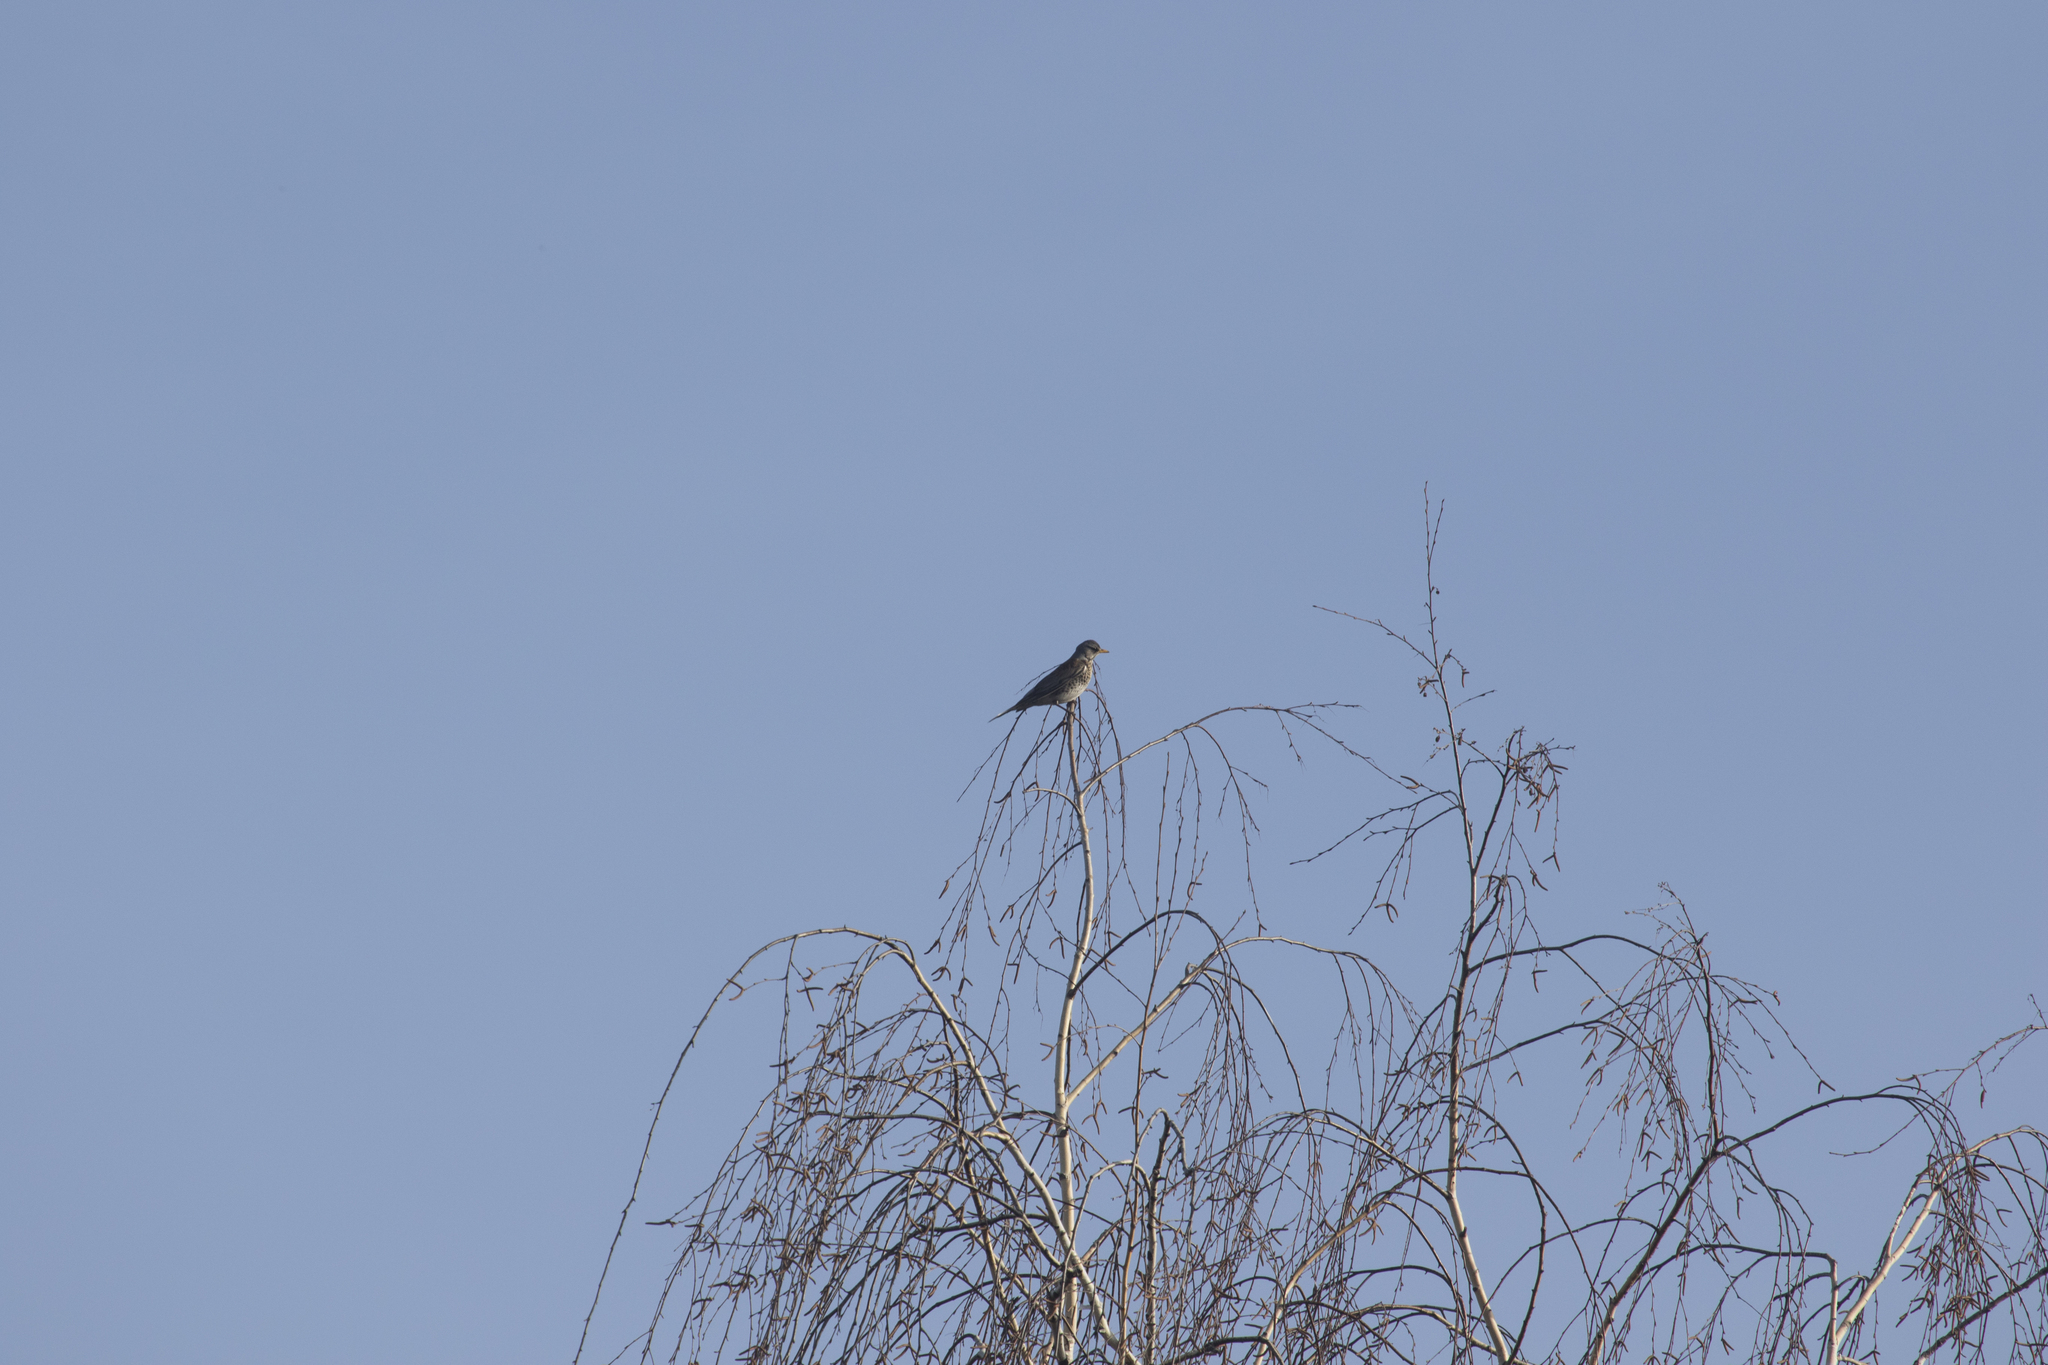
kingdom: Animalia
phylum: Chordata
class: Aves
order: Passeriformes
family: Turdidae
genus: Turdus
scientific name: Turdus pilaris
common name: Fieldfare
